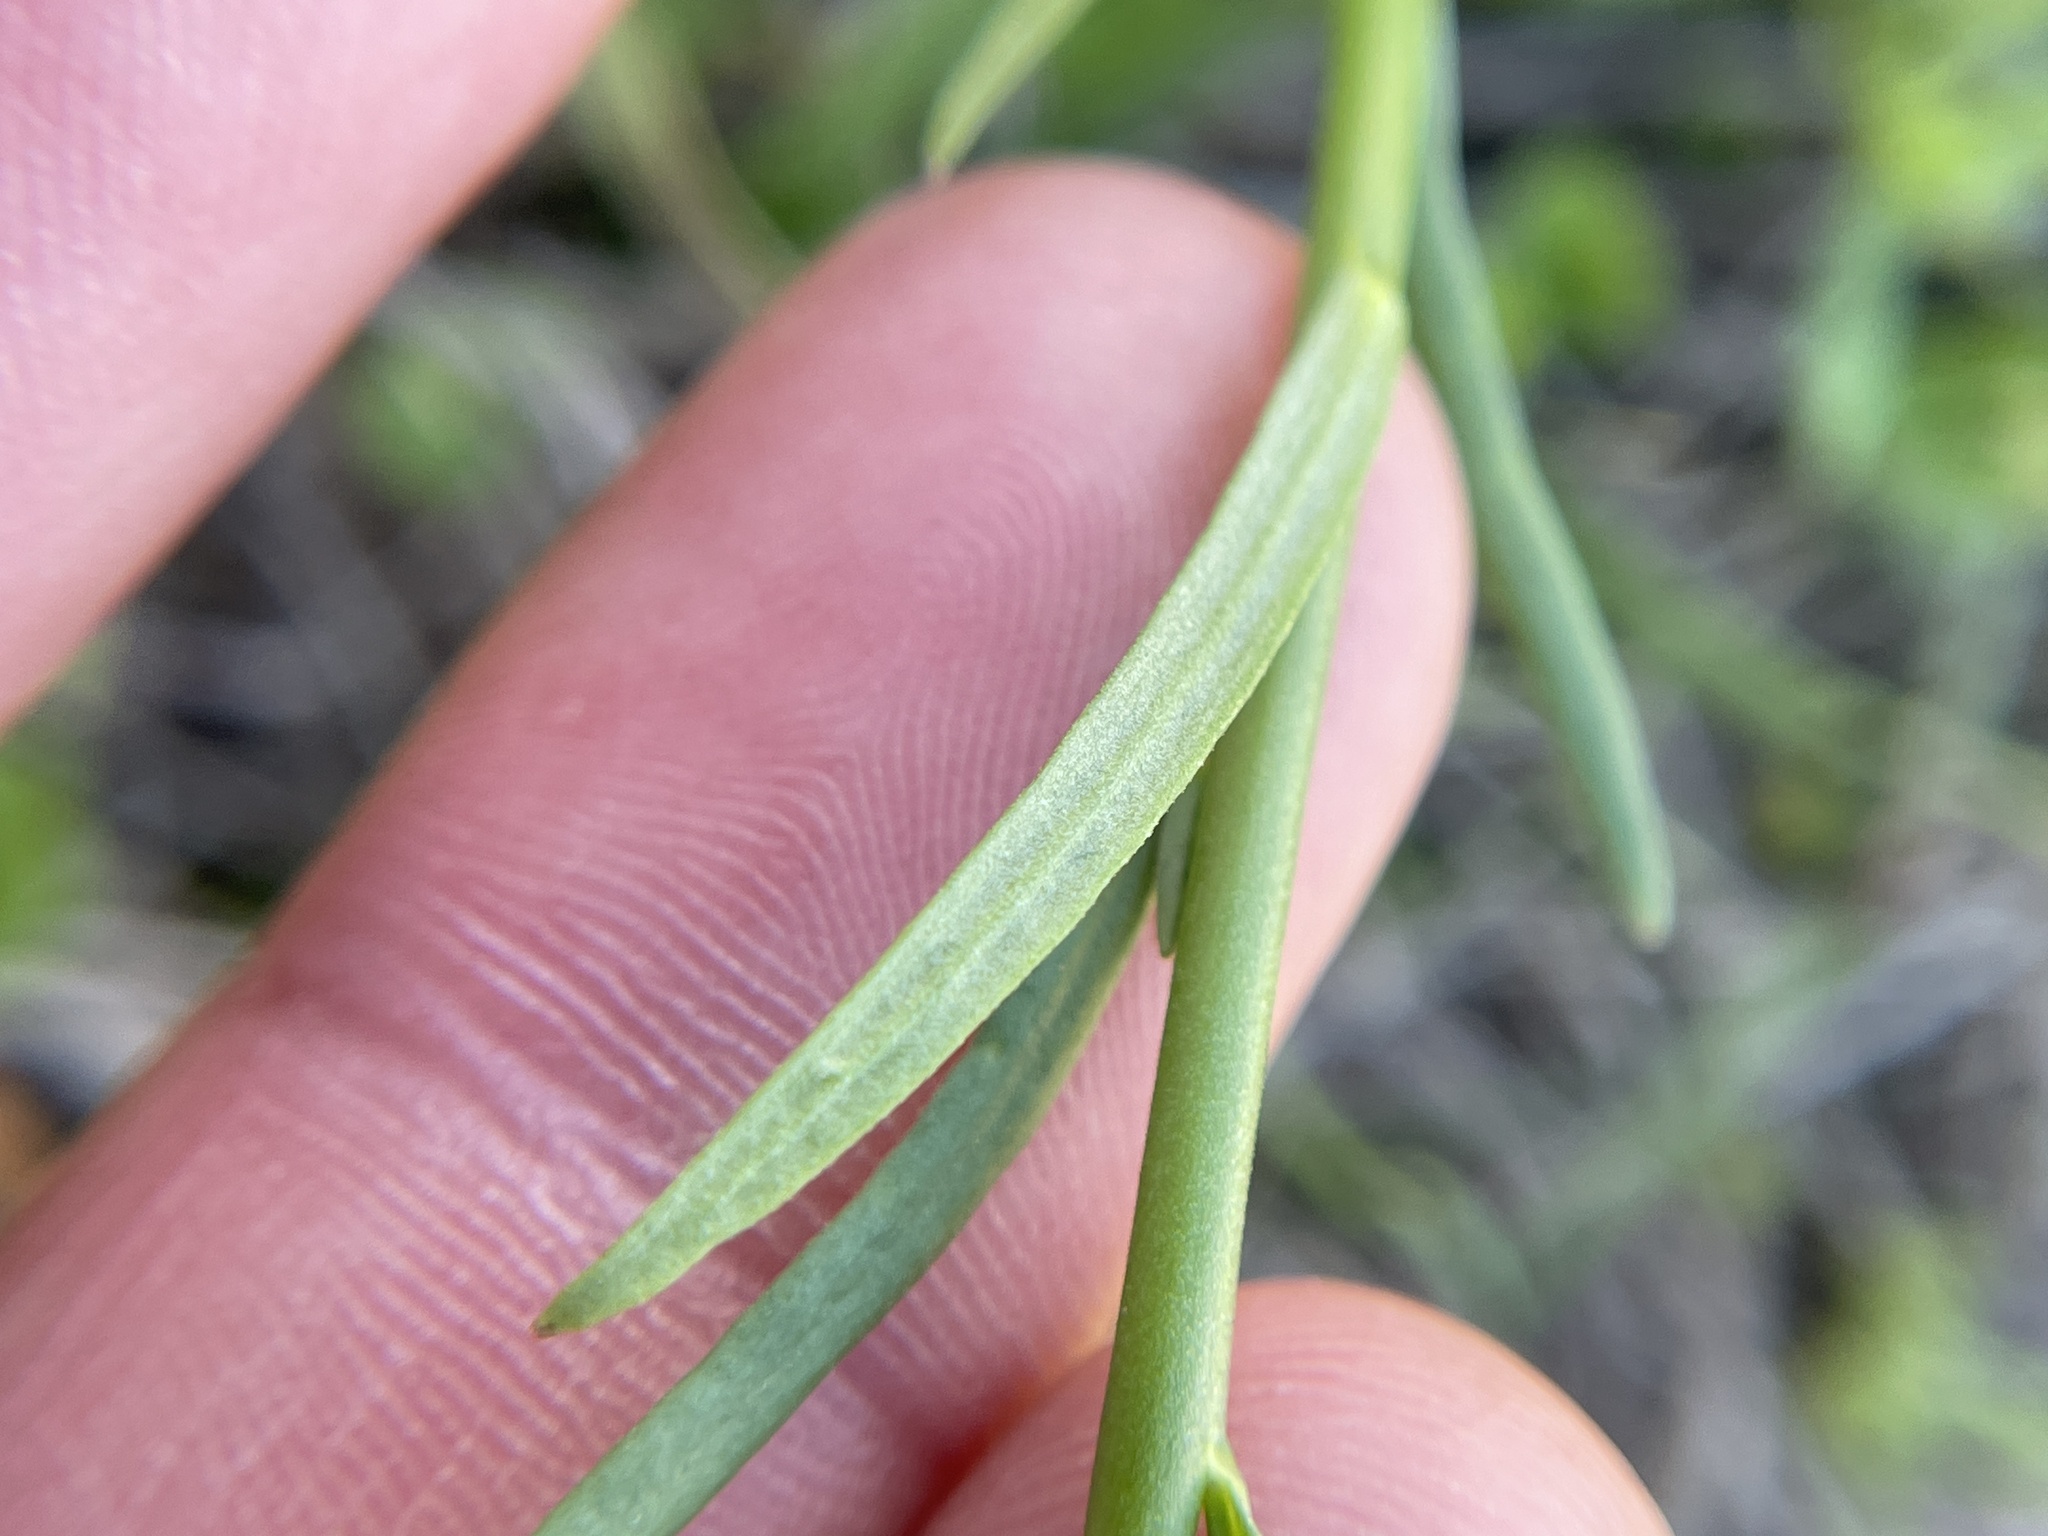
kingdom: Plantae
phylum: Tracheophyta
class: Magnoliopsida
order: Lamiales
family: Plantaginaceae
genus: Nuttallanthus
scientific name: Nuttallanthus texanus
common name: Texas toadflax
